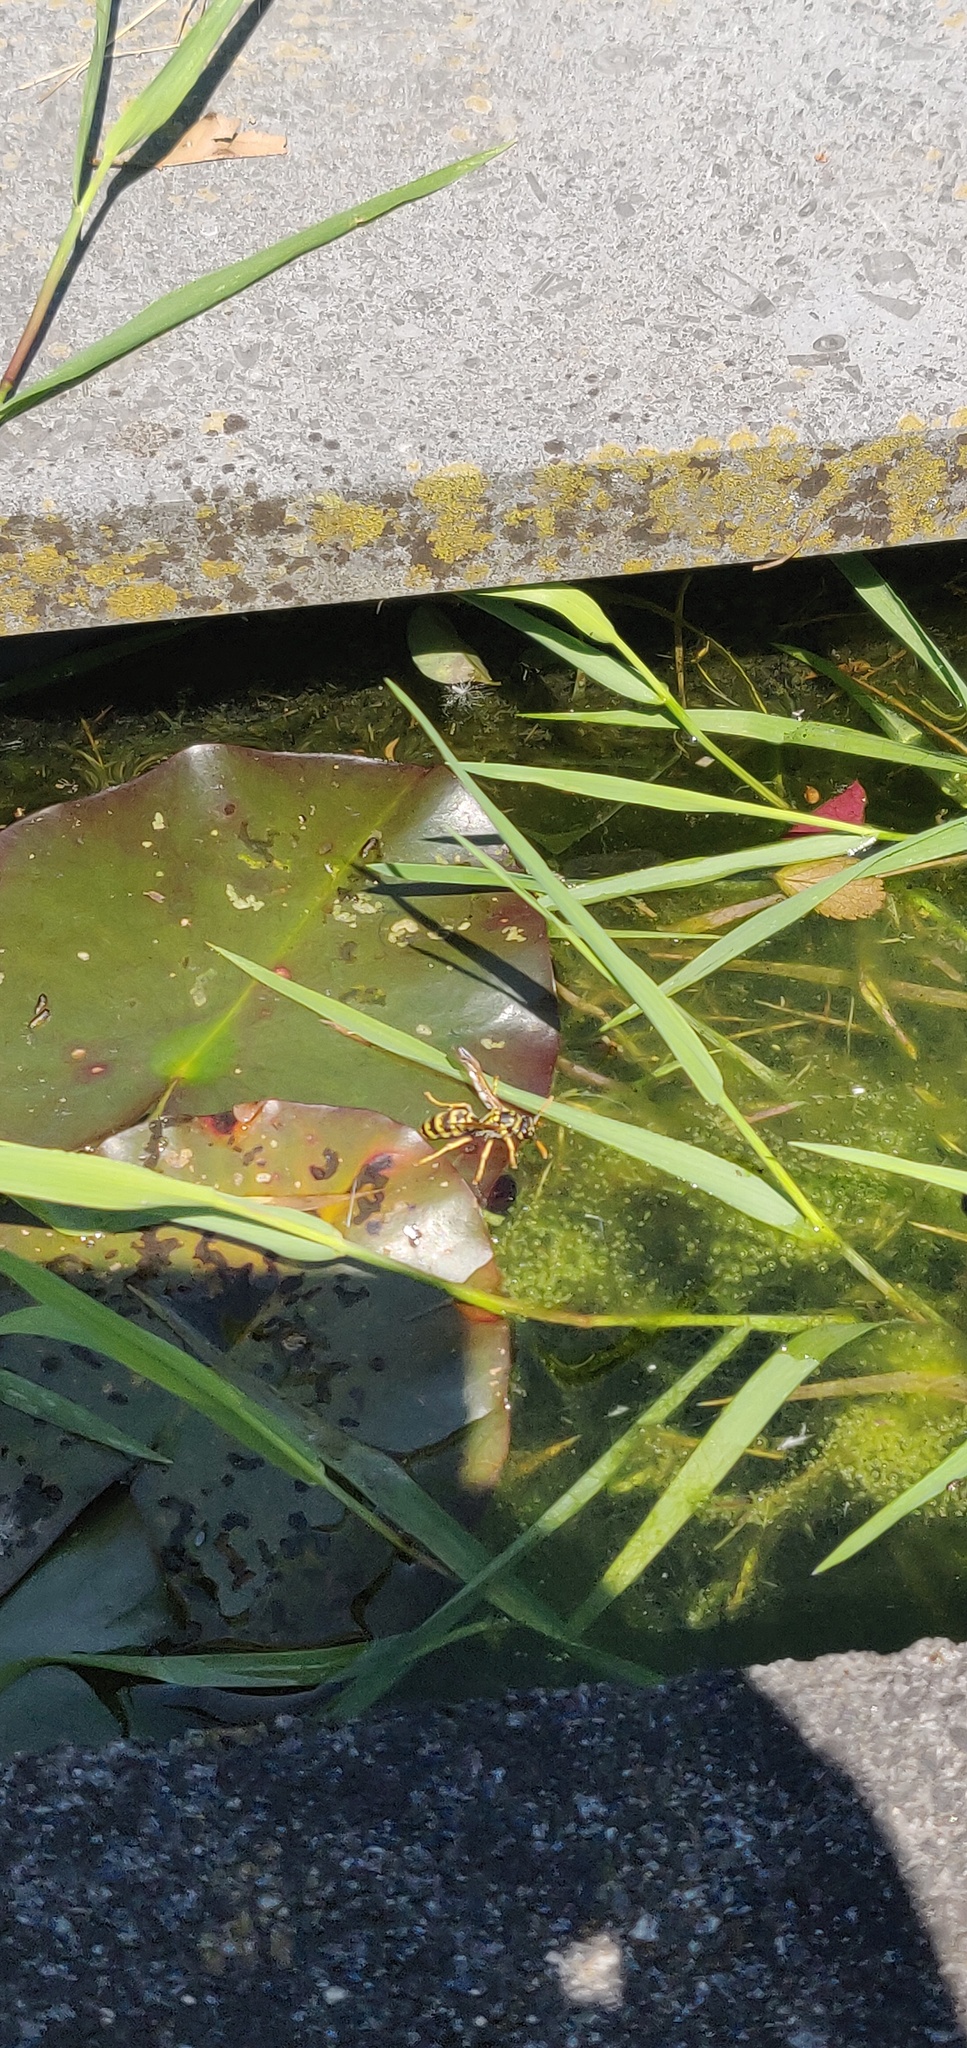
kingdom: Animalia
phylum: Arthropoda
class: Insecta
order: Hymenoptera
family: Eumenidae
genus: Polistes
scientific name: Polistes dominula
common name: Paper wasp
